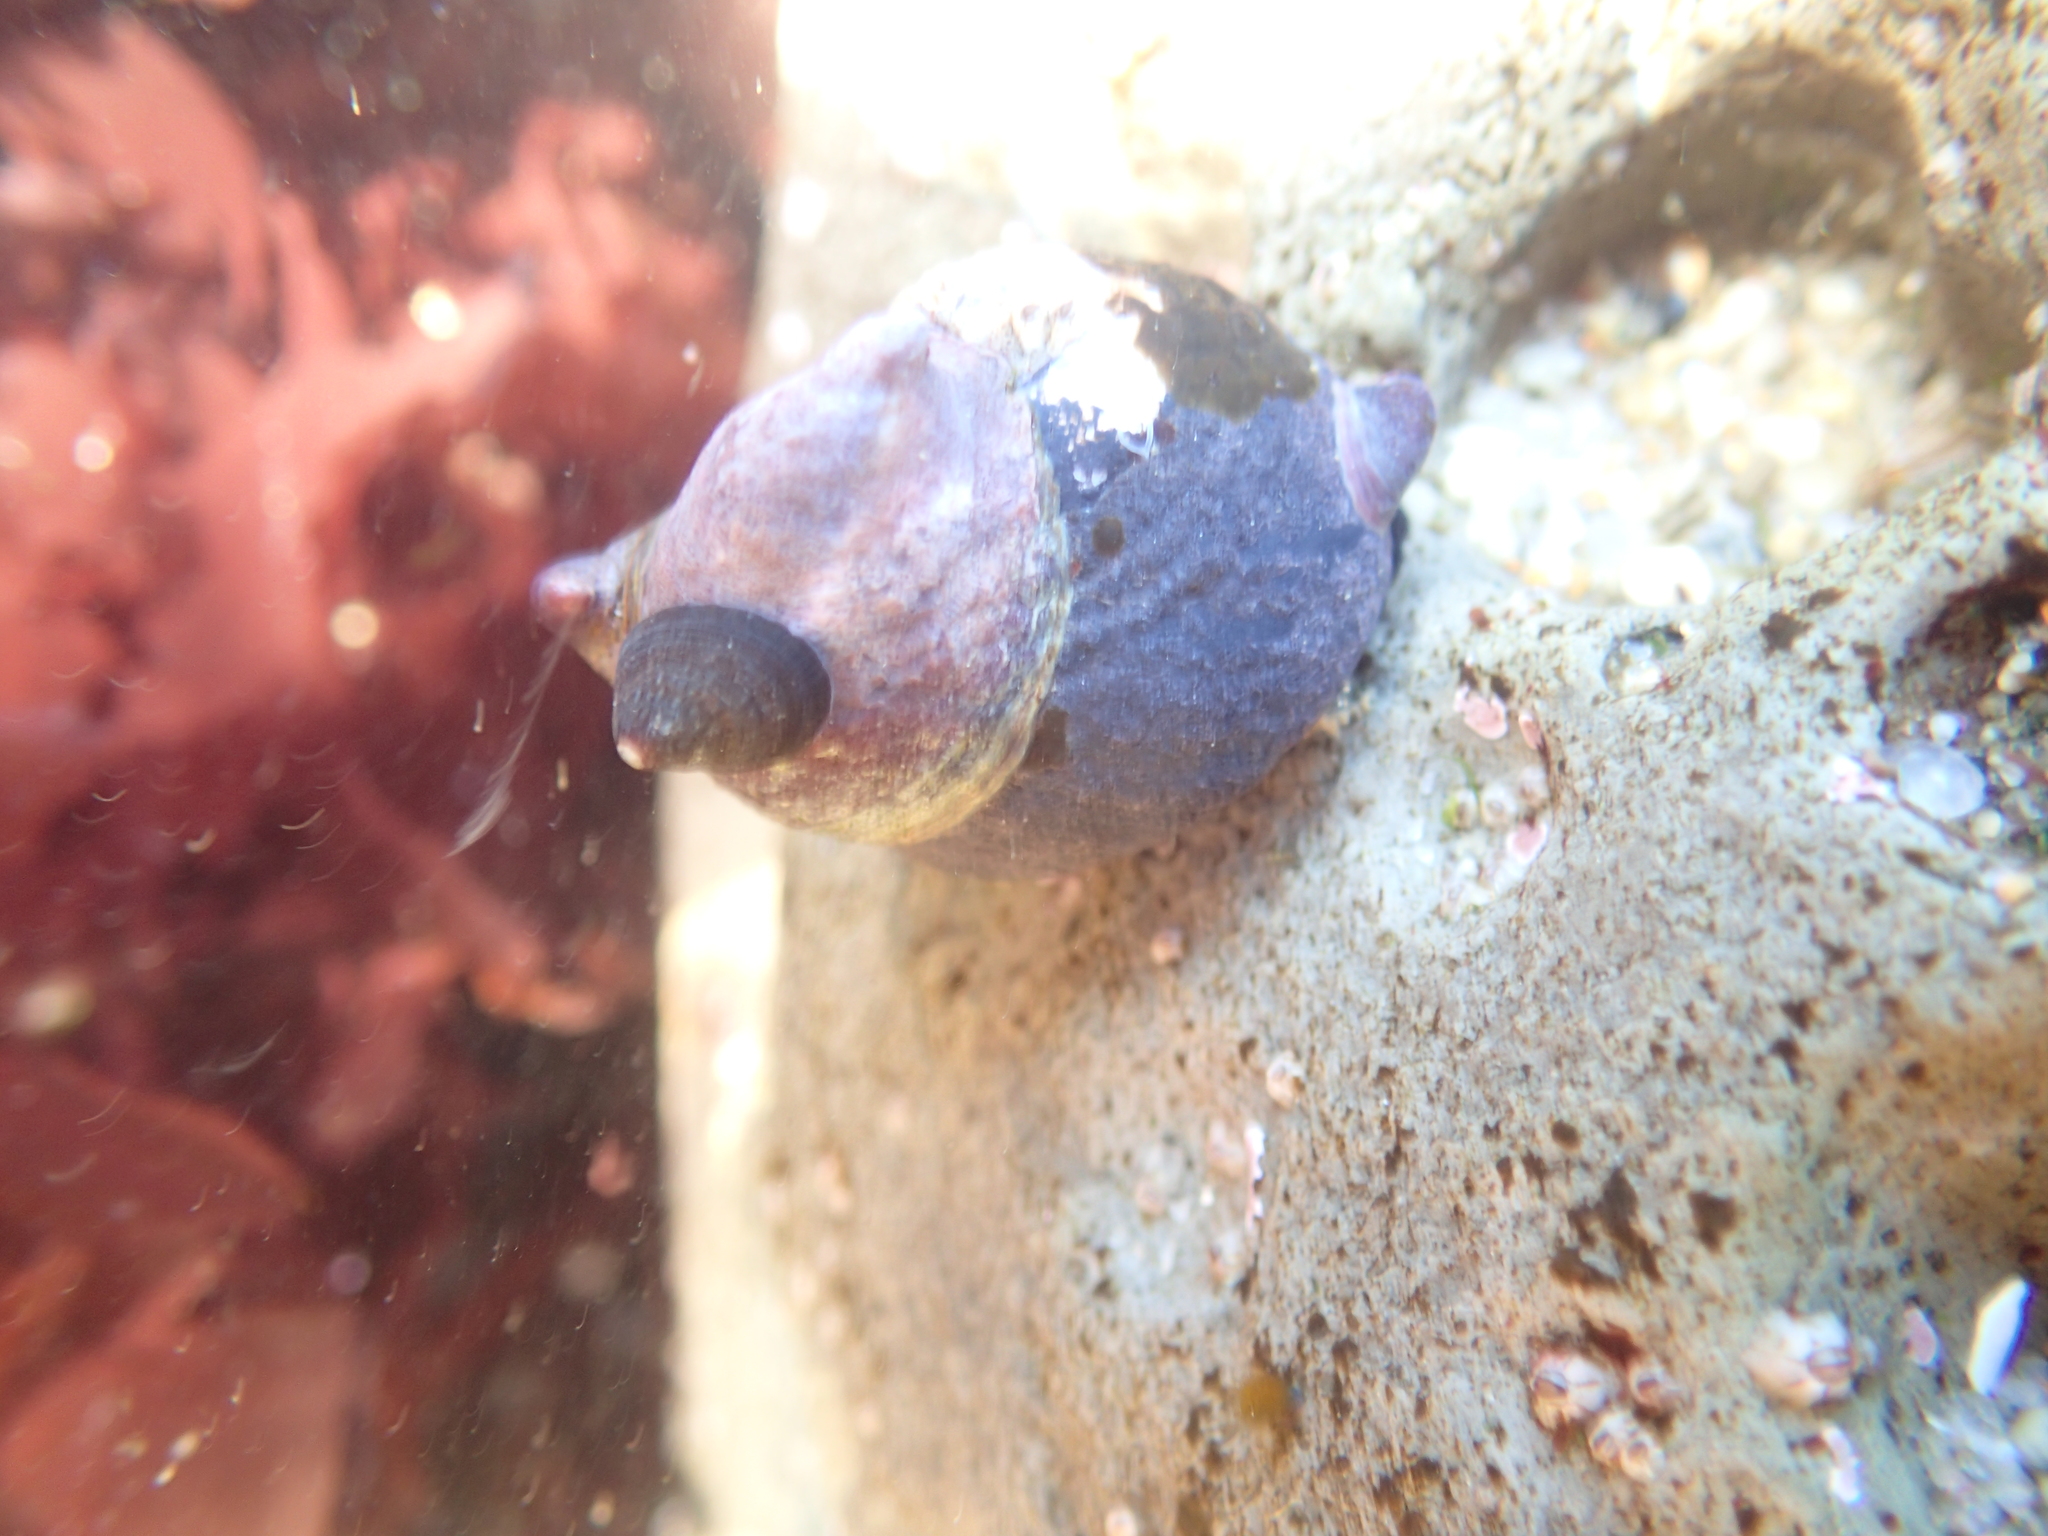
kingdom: Animalia
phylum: Mollusca
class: Gastropoda
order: Trochida
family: Tegulidae
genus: Tegula
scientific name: Tegula funebralis
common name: Black tegula
